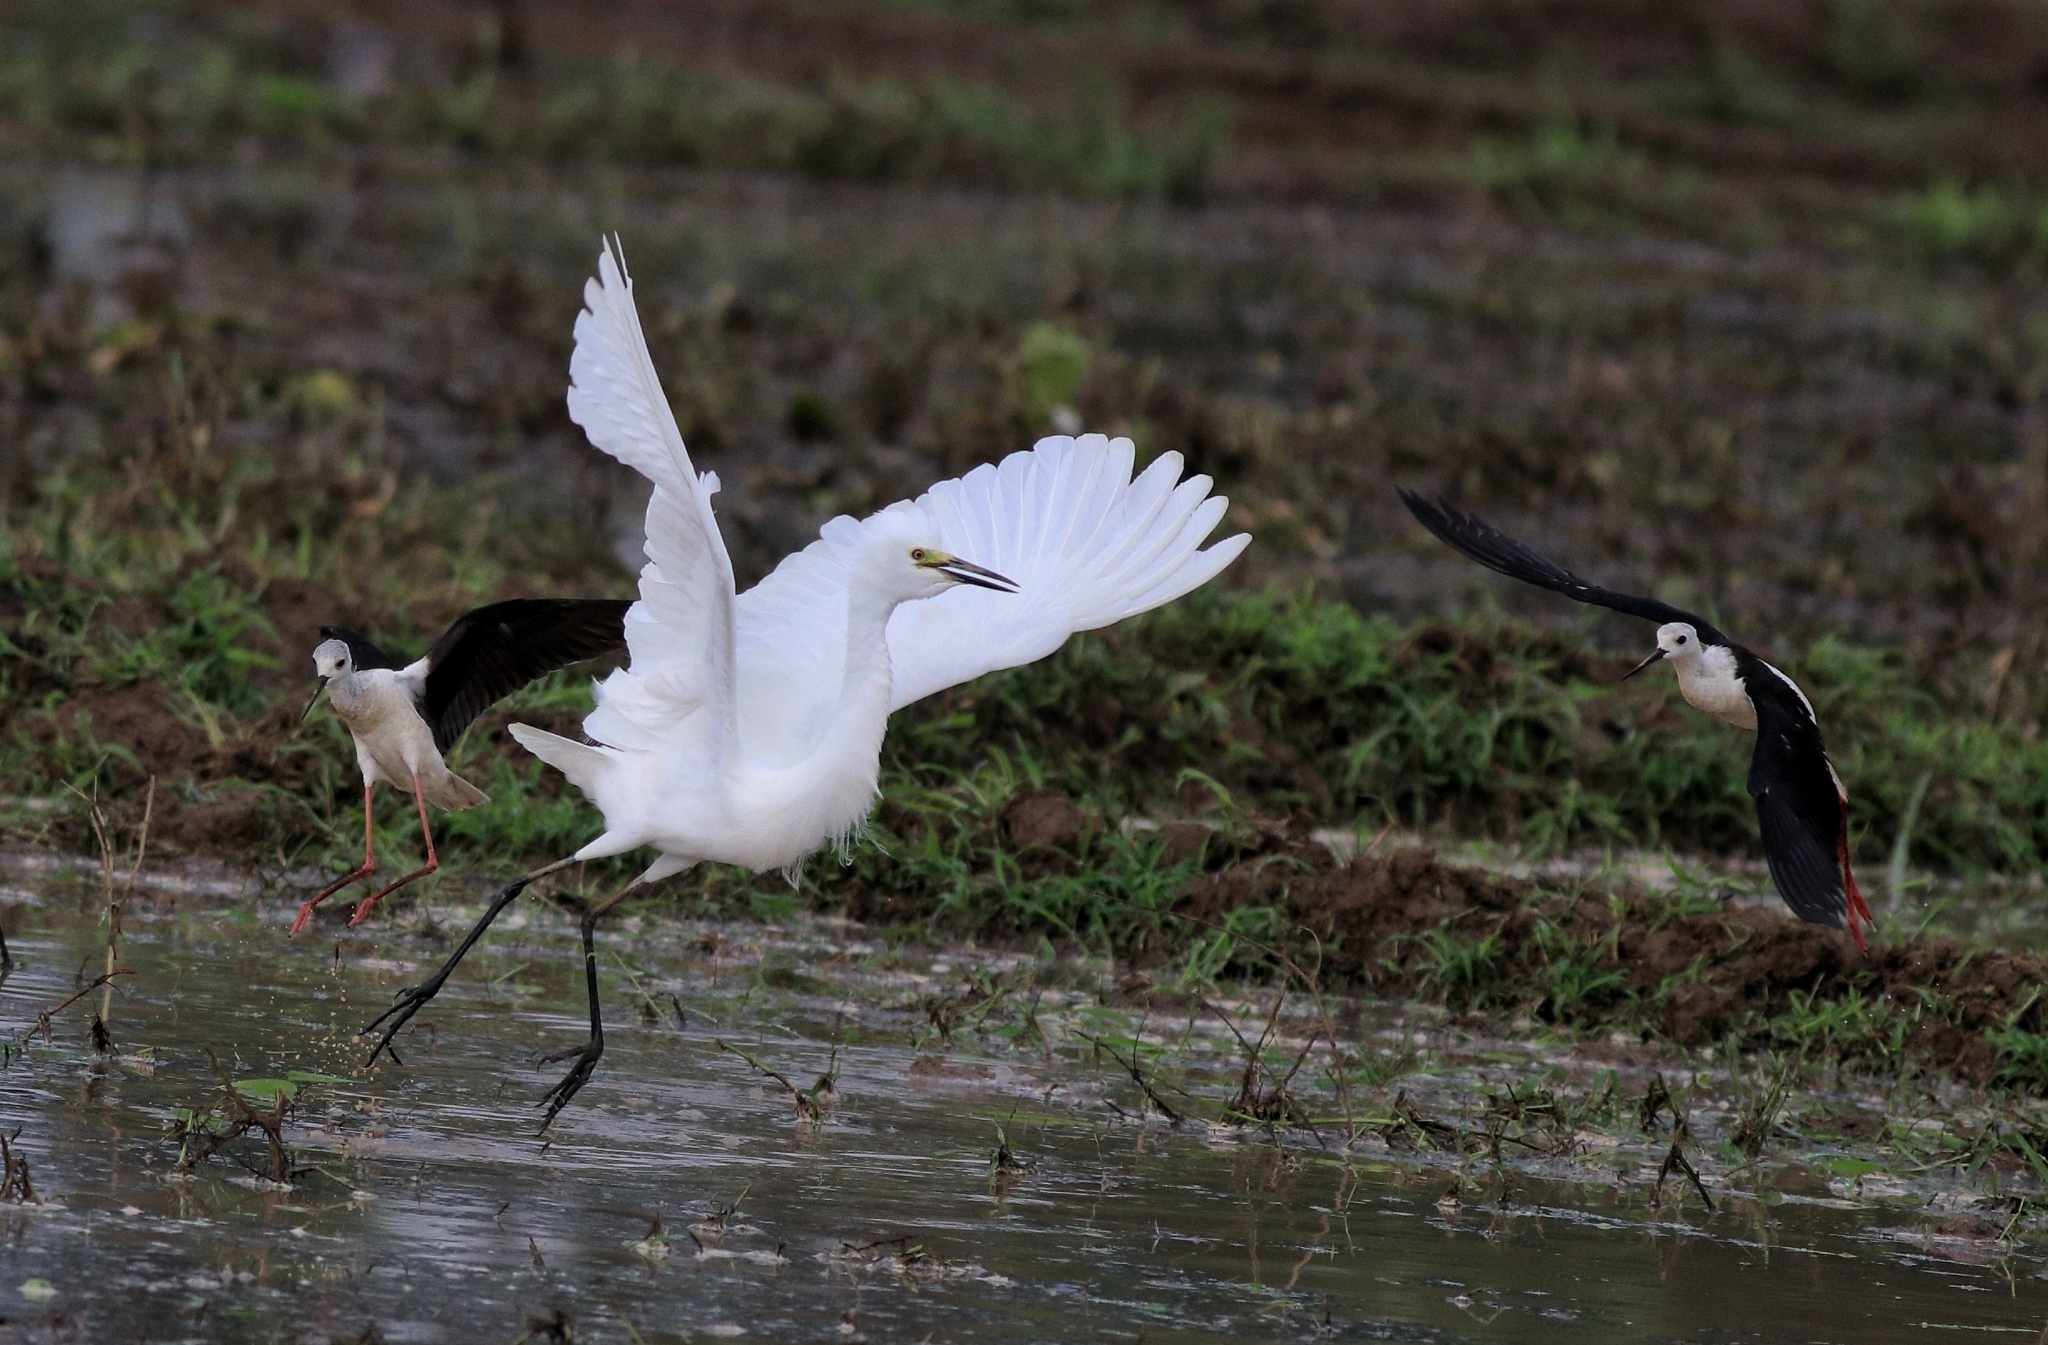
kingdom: Animalia
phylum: Chordata
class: Aves
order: Charadriiformes
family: Recurvirostridae
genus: Himantopus
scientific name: Himantopus himantopus
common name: Black-winged stilt
